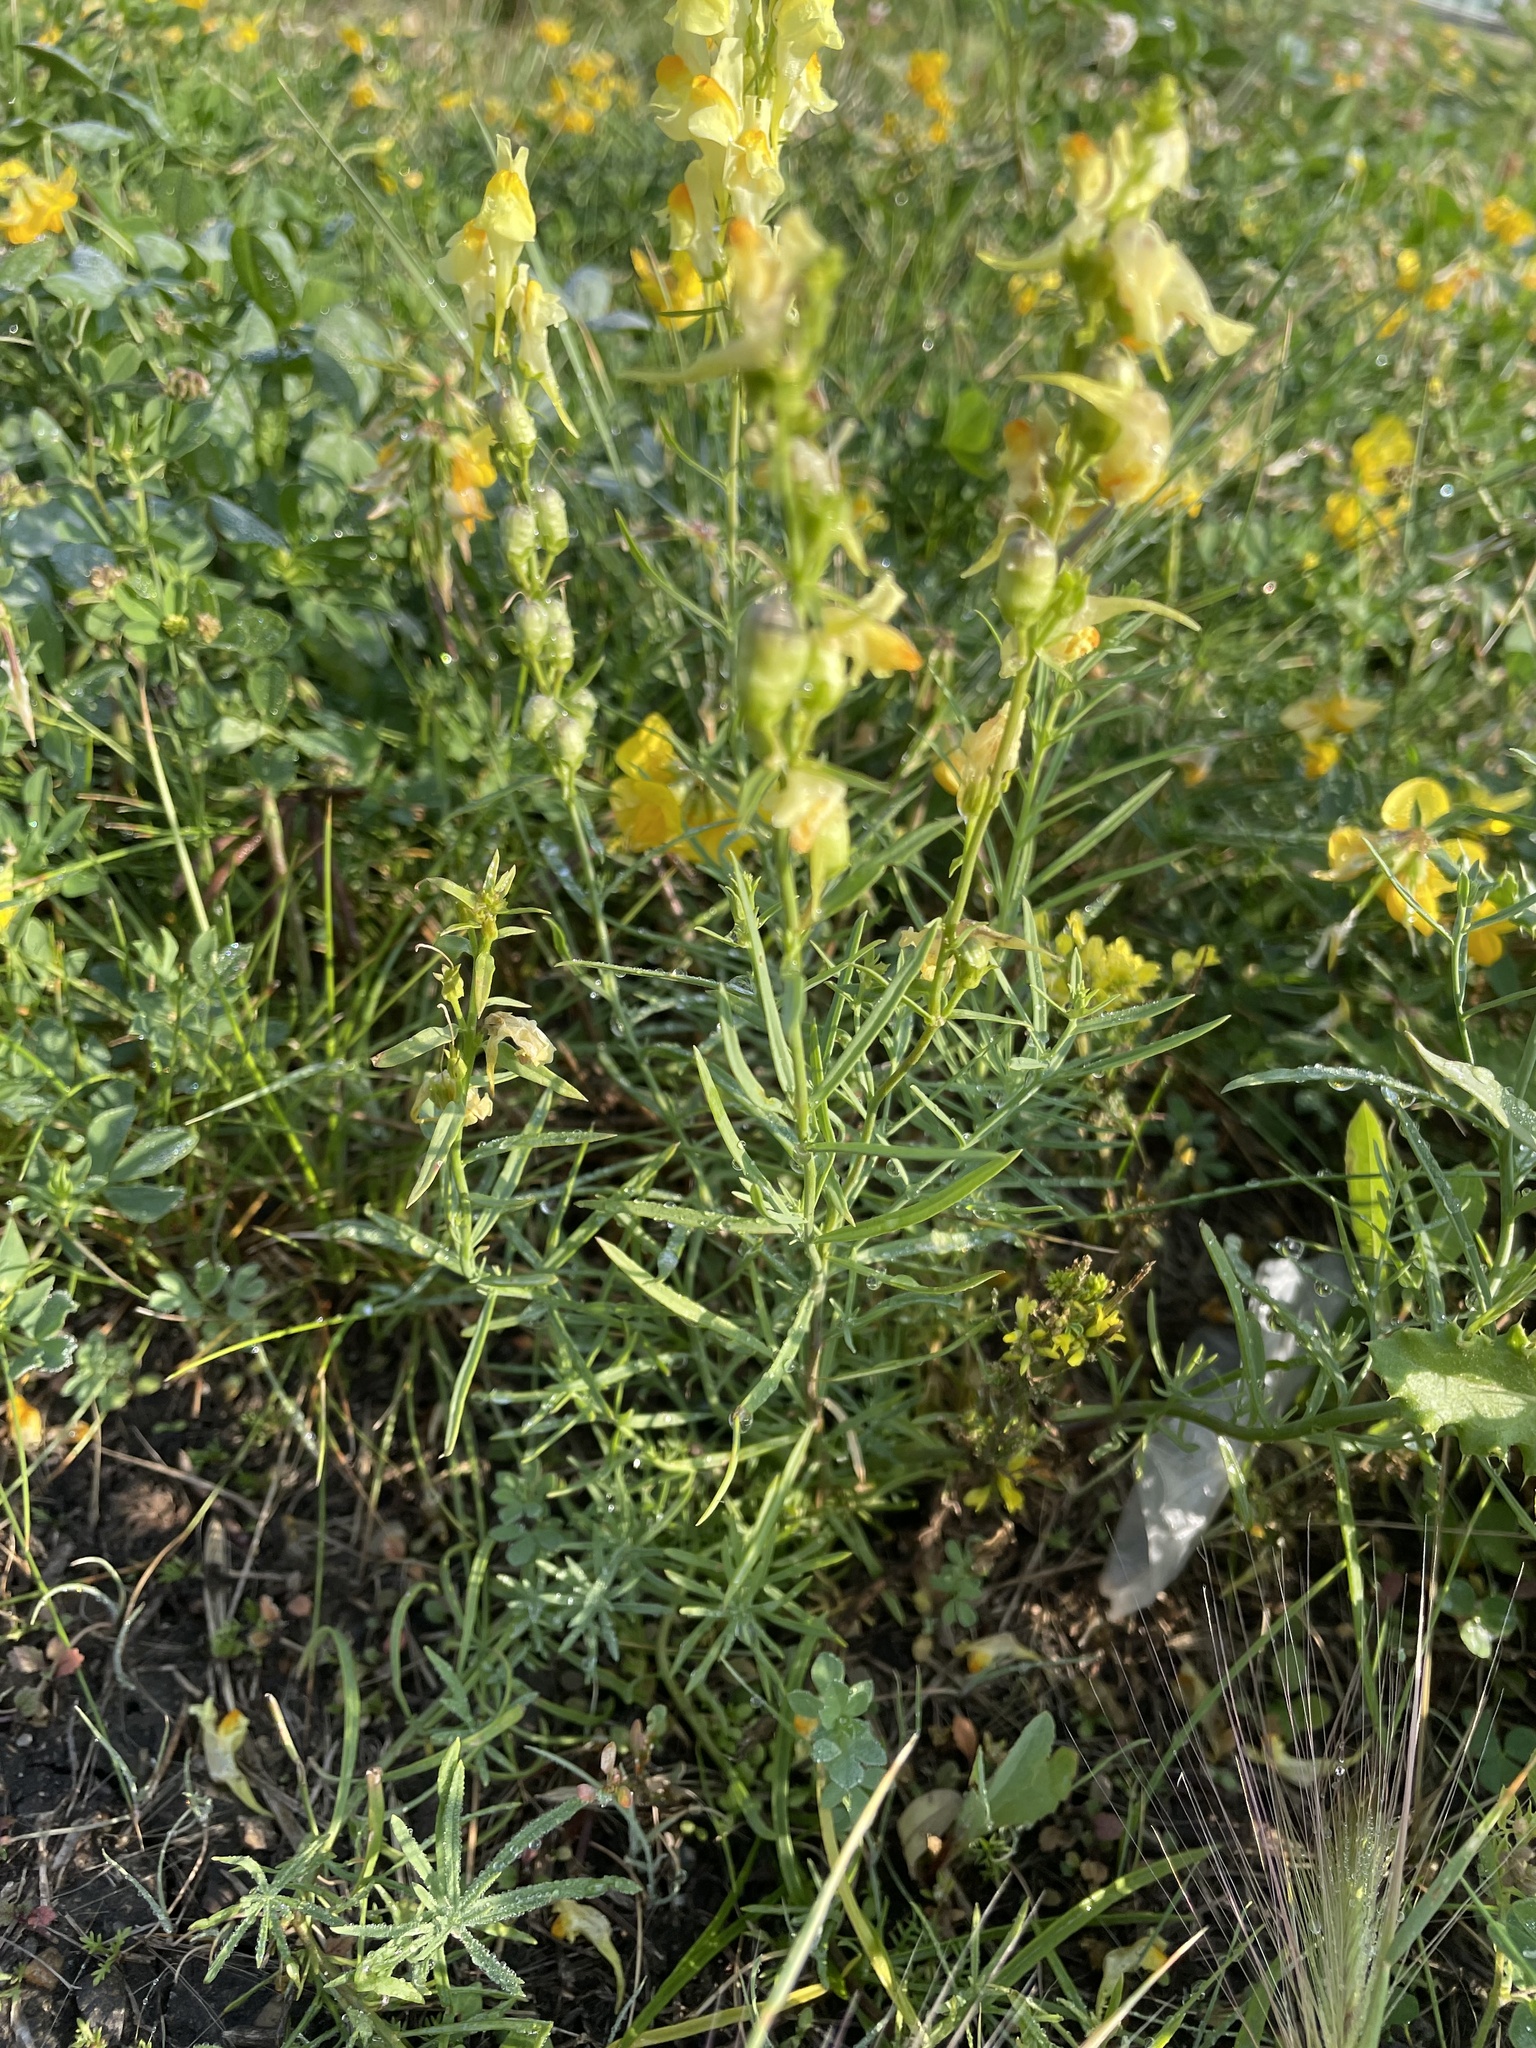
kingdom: Plantae
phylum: Tracheophyta
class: Magnoliopsida
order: Lamiales
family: Plantaginaceae
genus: Linaria
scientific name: Linaria vulgaris
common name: Butter and eggs
